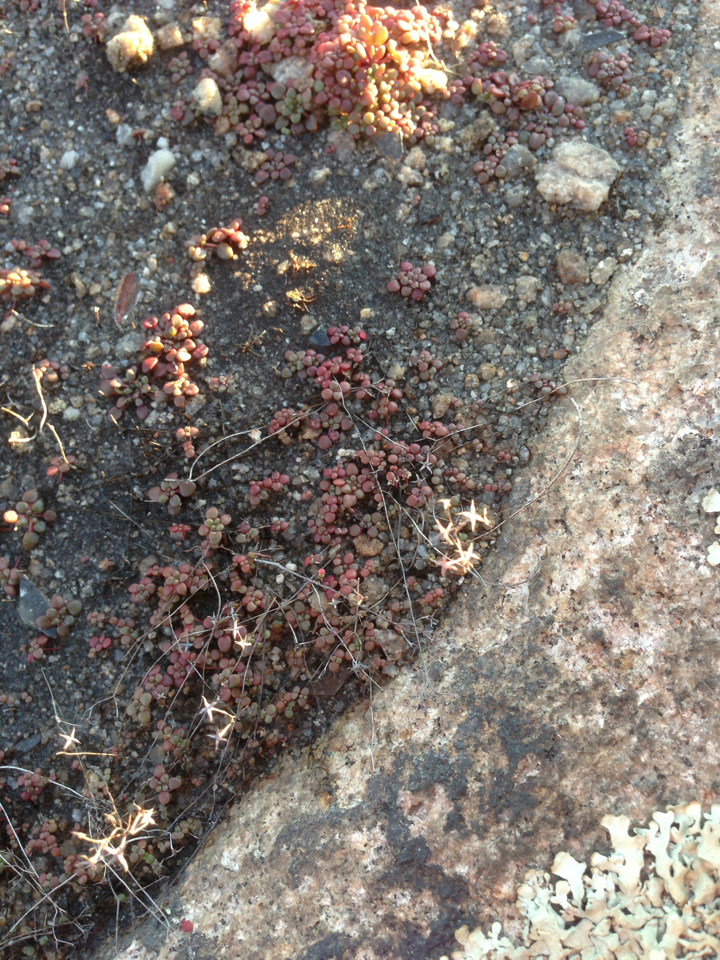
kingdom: Plantae
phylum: Tracheophyta
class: Magnoliopsida
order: Saxifragales
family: Crassulaceae
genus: Sedum
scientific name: Sedum smallii
